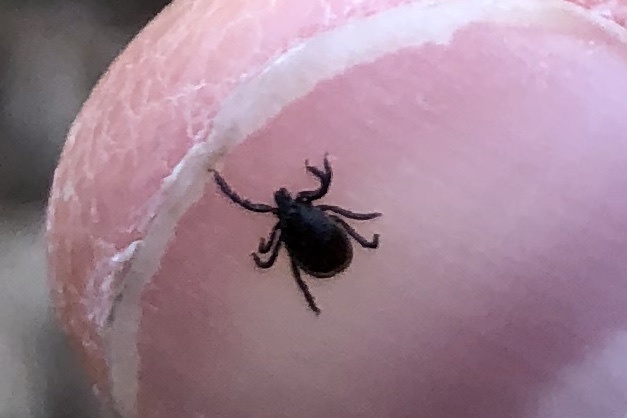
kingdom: Animalia
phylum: Arthropoda
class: Arachnida
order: Ixodida
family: Ixodidae
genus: Ixodes
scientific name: Ixodes ricinus
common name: Castor bean tick
